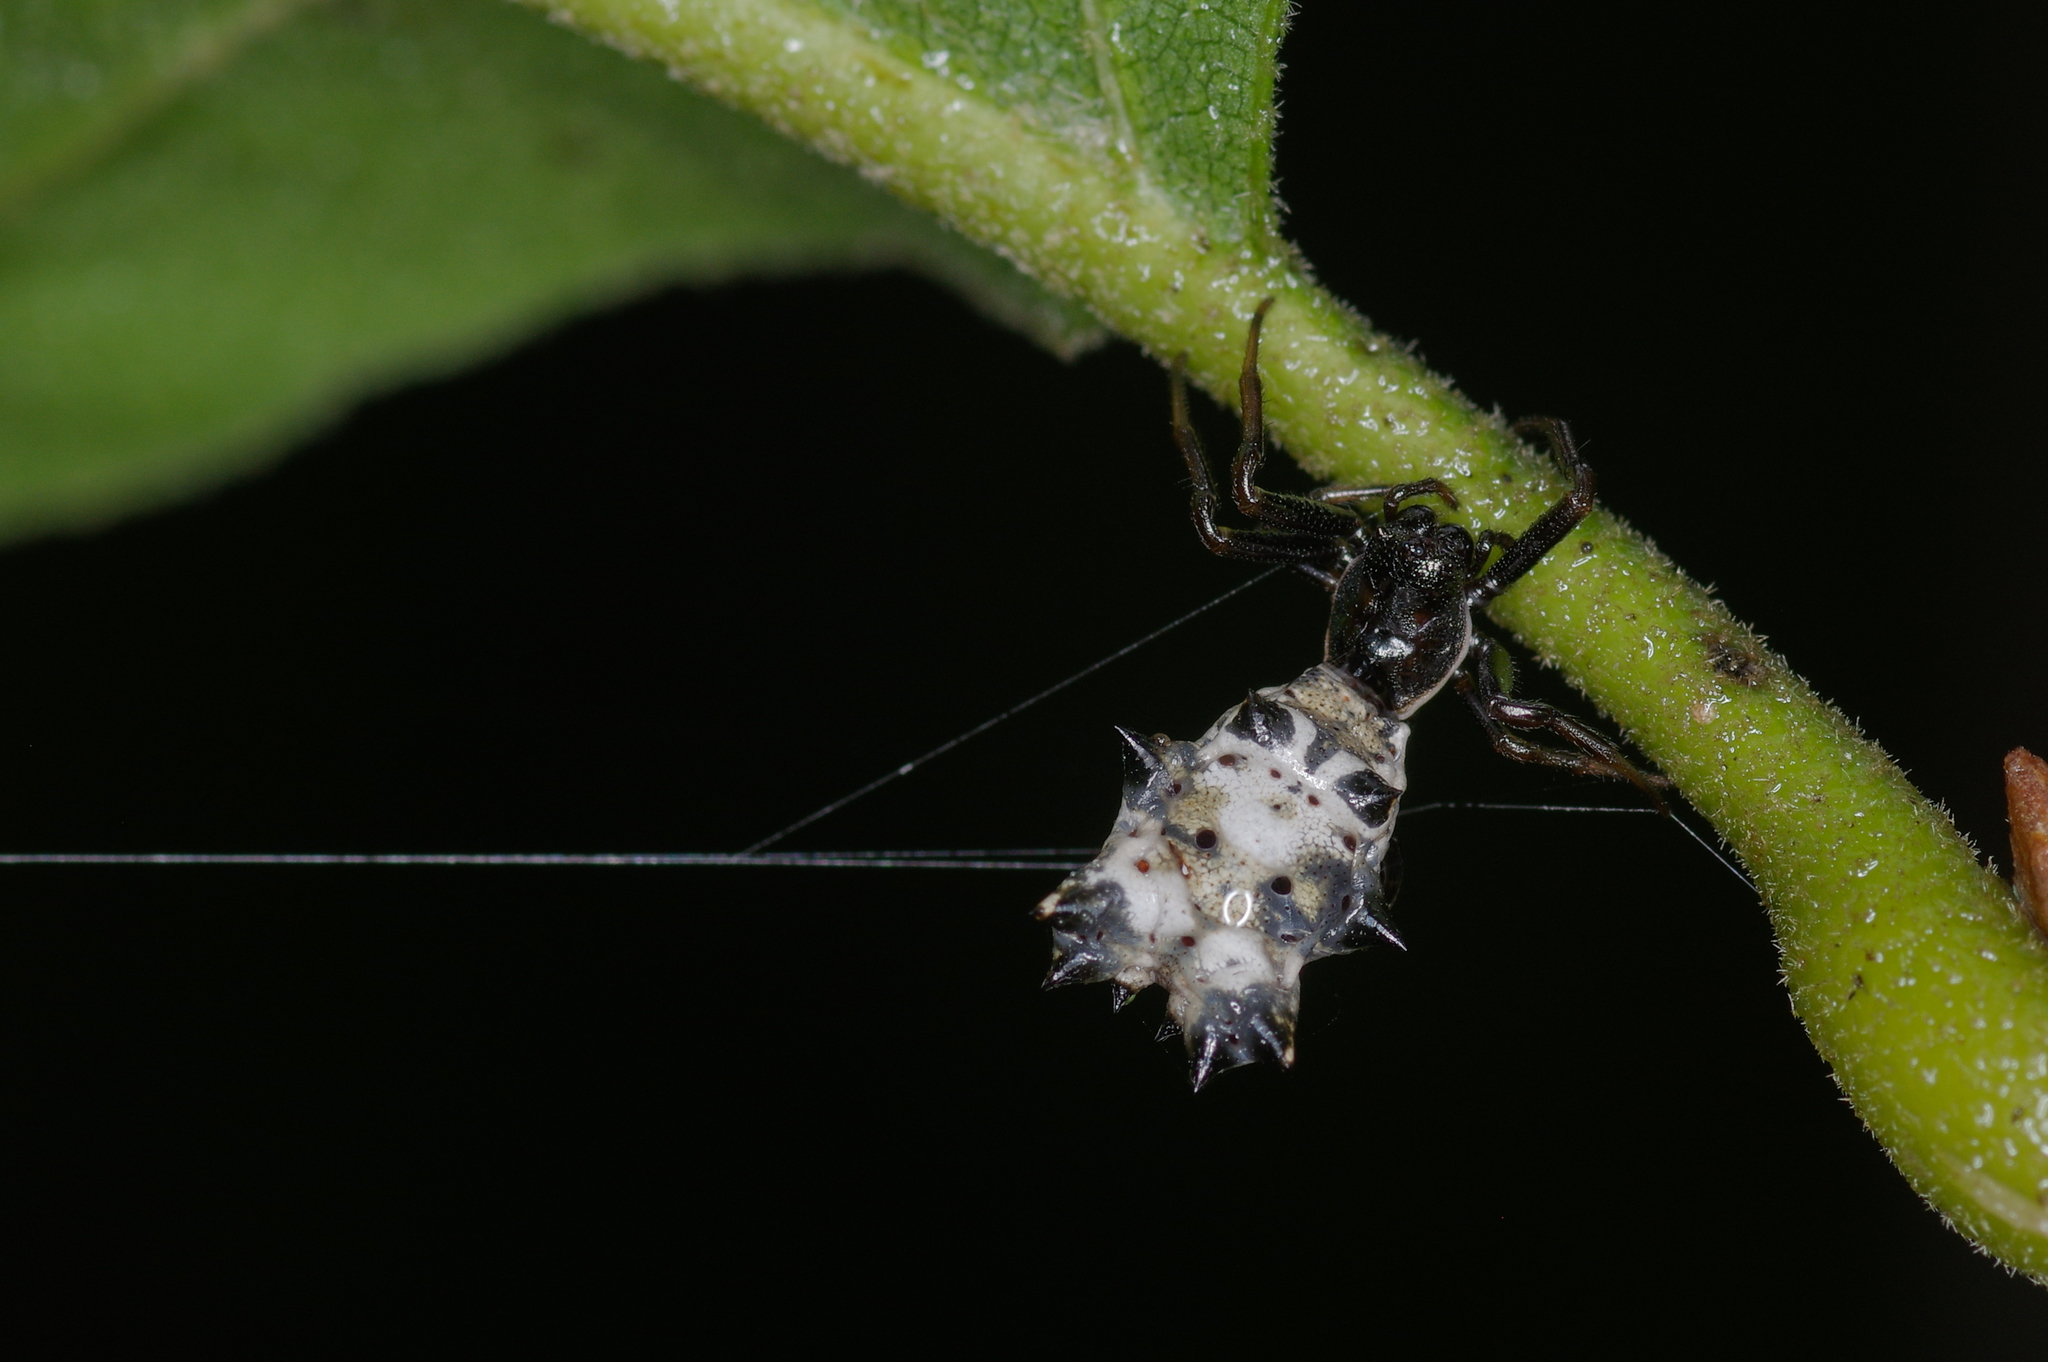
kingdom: Animalia
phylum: Arthropoda
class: Arachnida
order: Araneae
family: Araneidae
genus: Micrathena
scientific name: Micrathena gracilis
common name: Orb weavers
